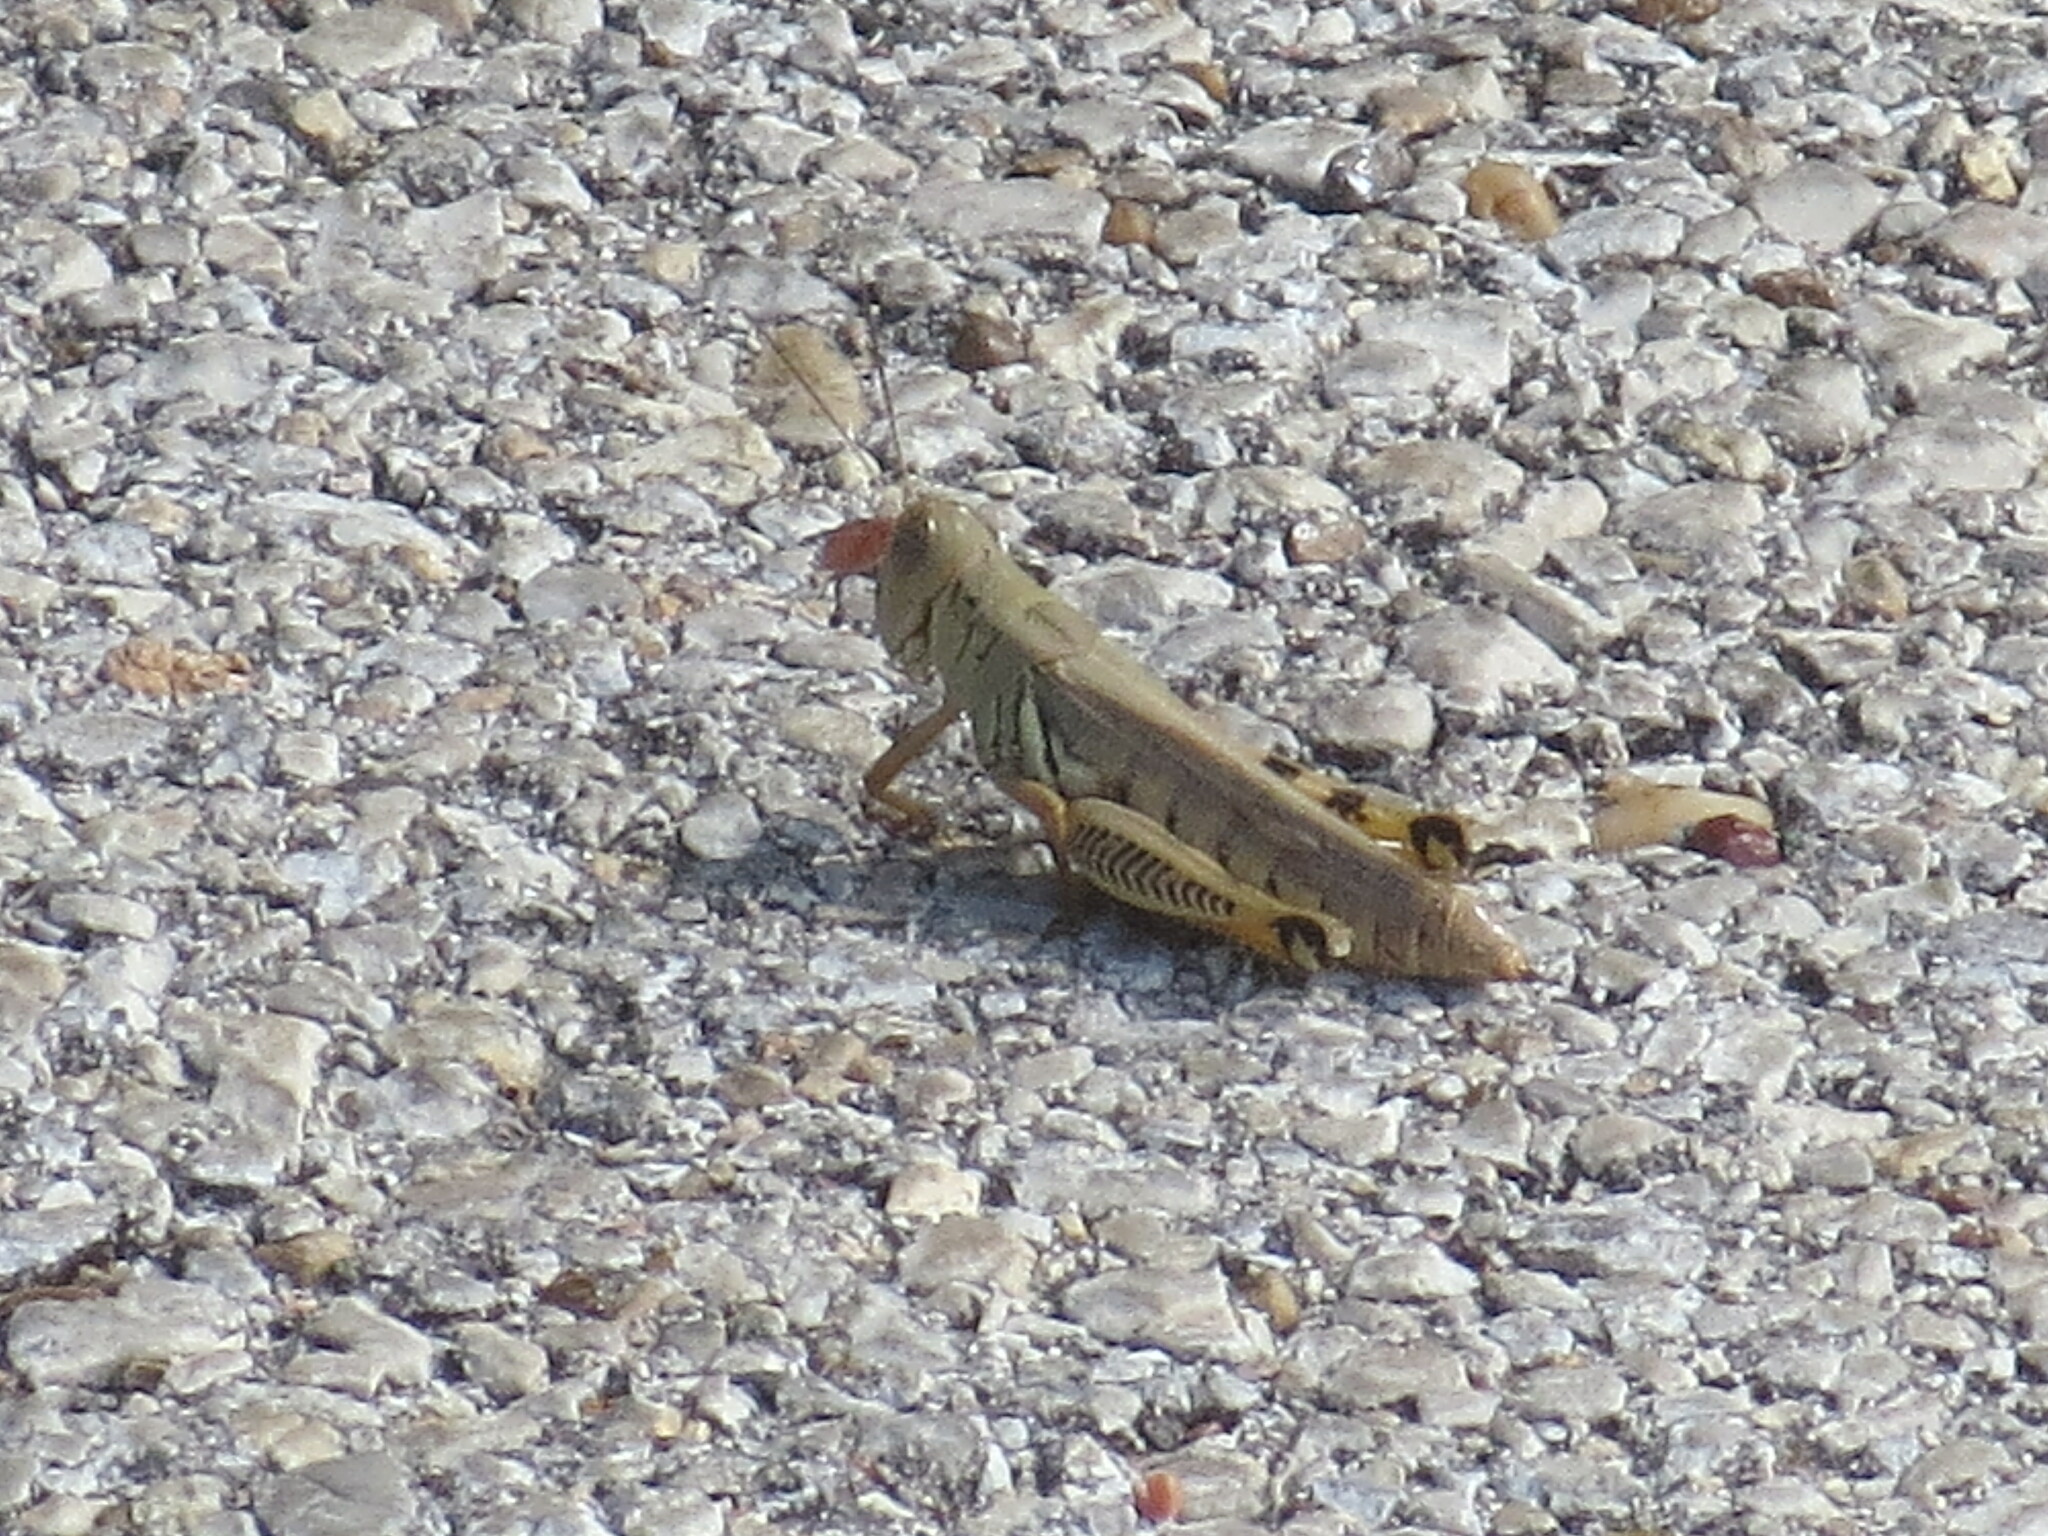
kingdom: Animalia
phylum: Arthropoda
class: Insecta
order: Orthoptera
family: Acrididae
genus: Melanoplus
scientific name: Melanoplus differentialis
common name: Differential grasshopper
